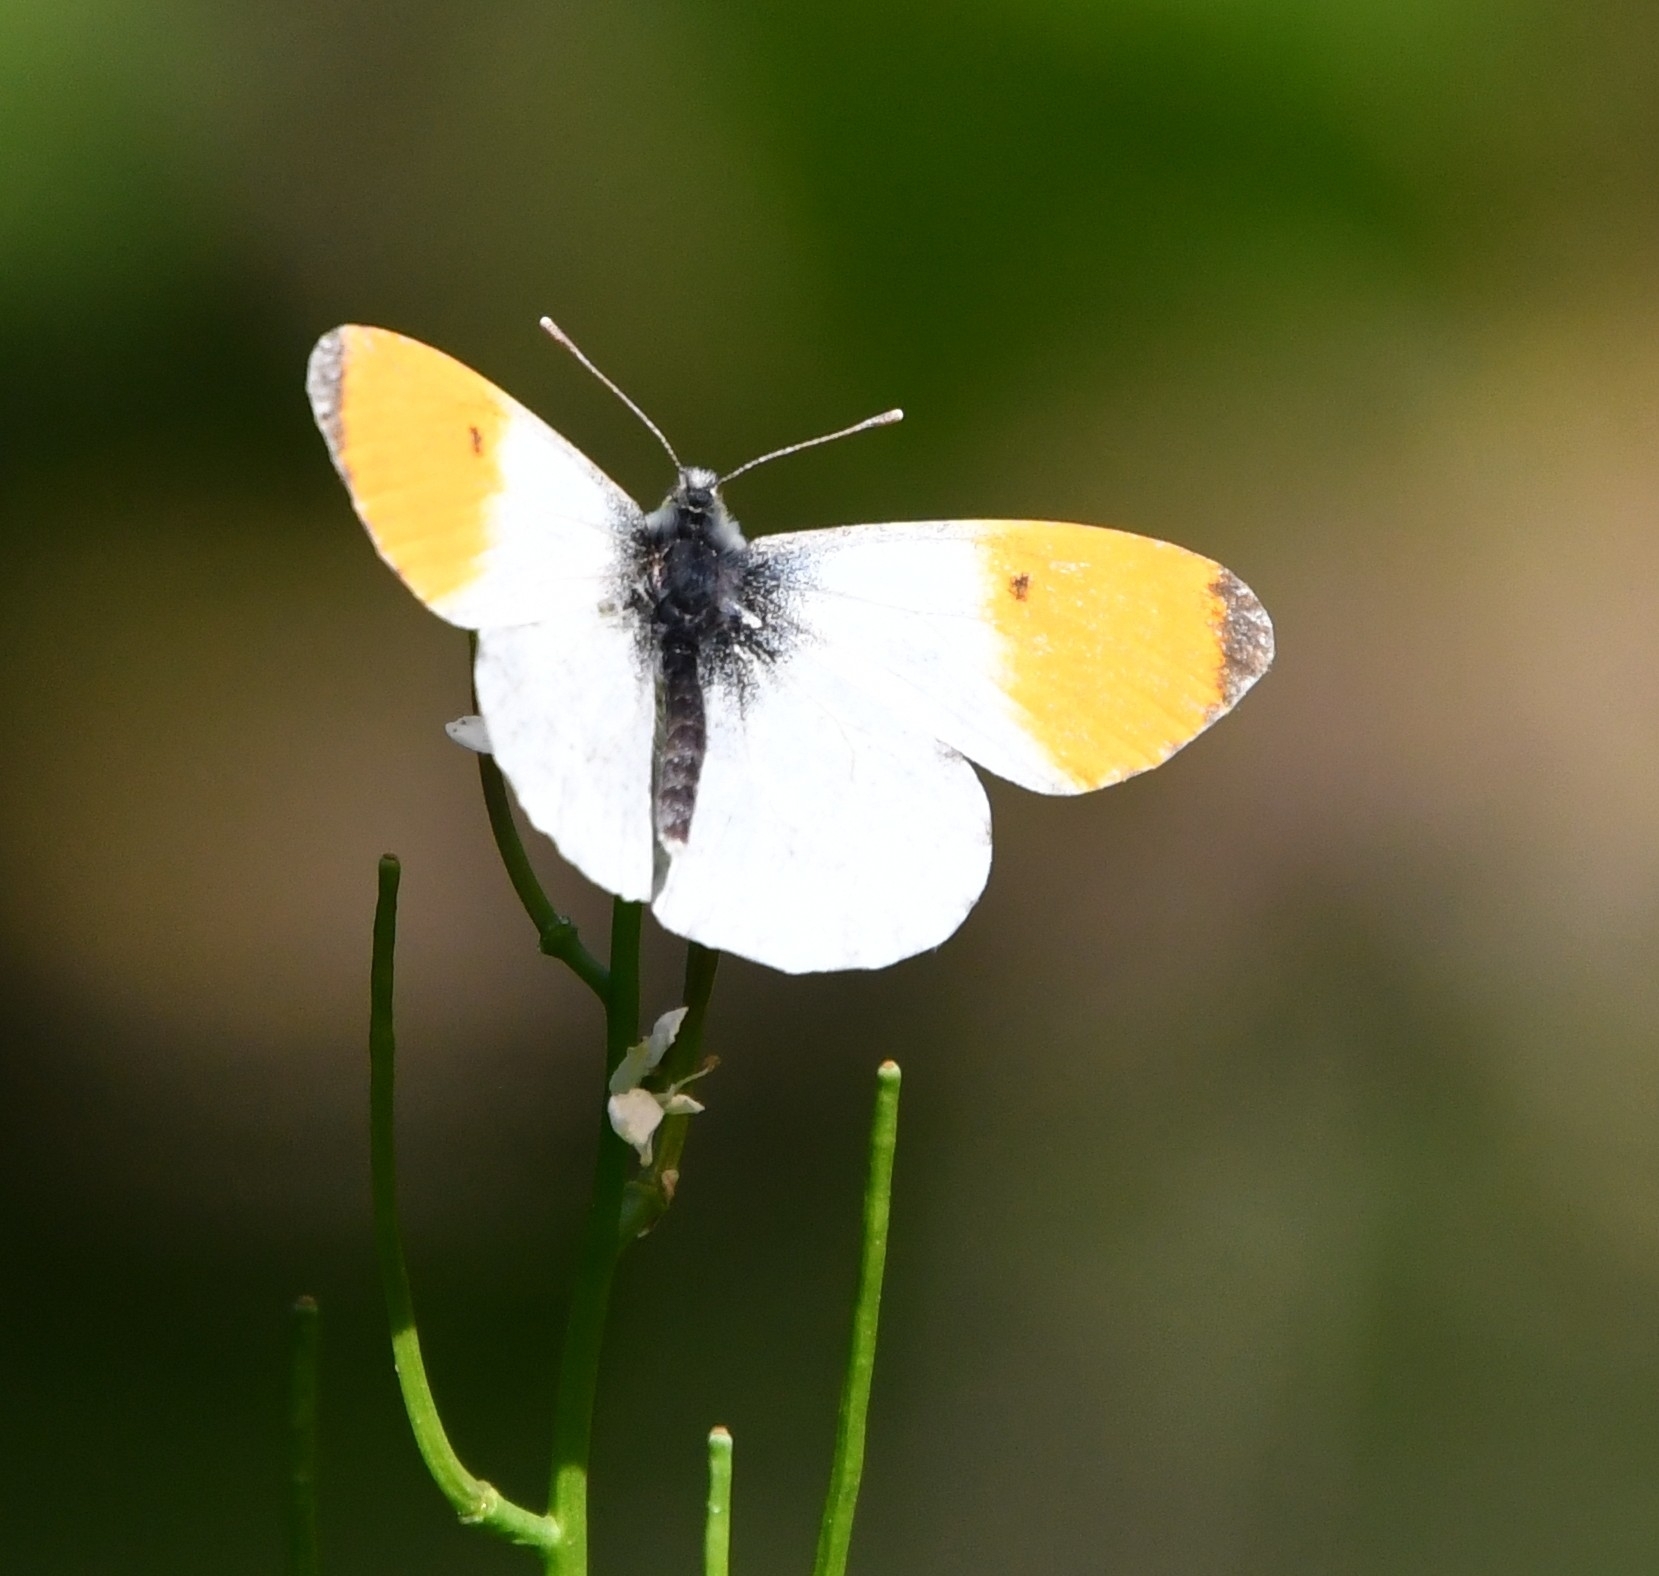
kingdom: Animalia
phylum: Arthropoda
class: Insecta
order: Lepidoptera
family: Pieridae
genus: Anthocharis
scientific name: Anthocharis cardamines
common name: Orange-tip
